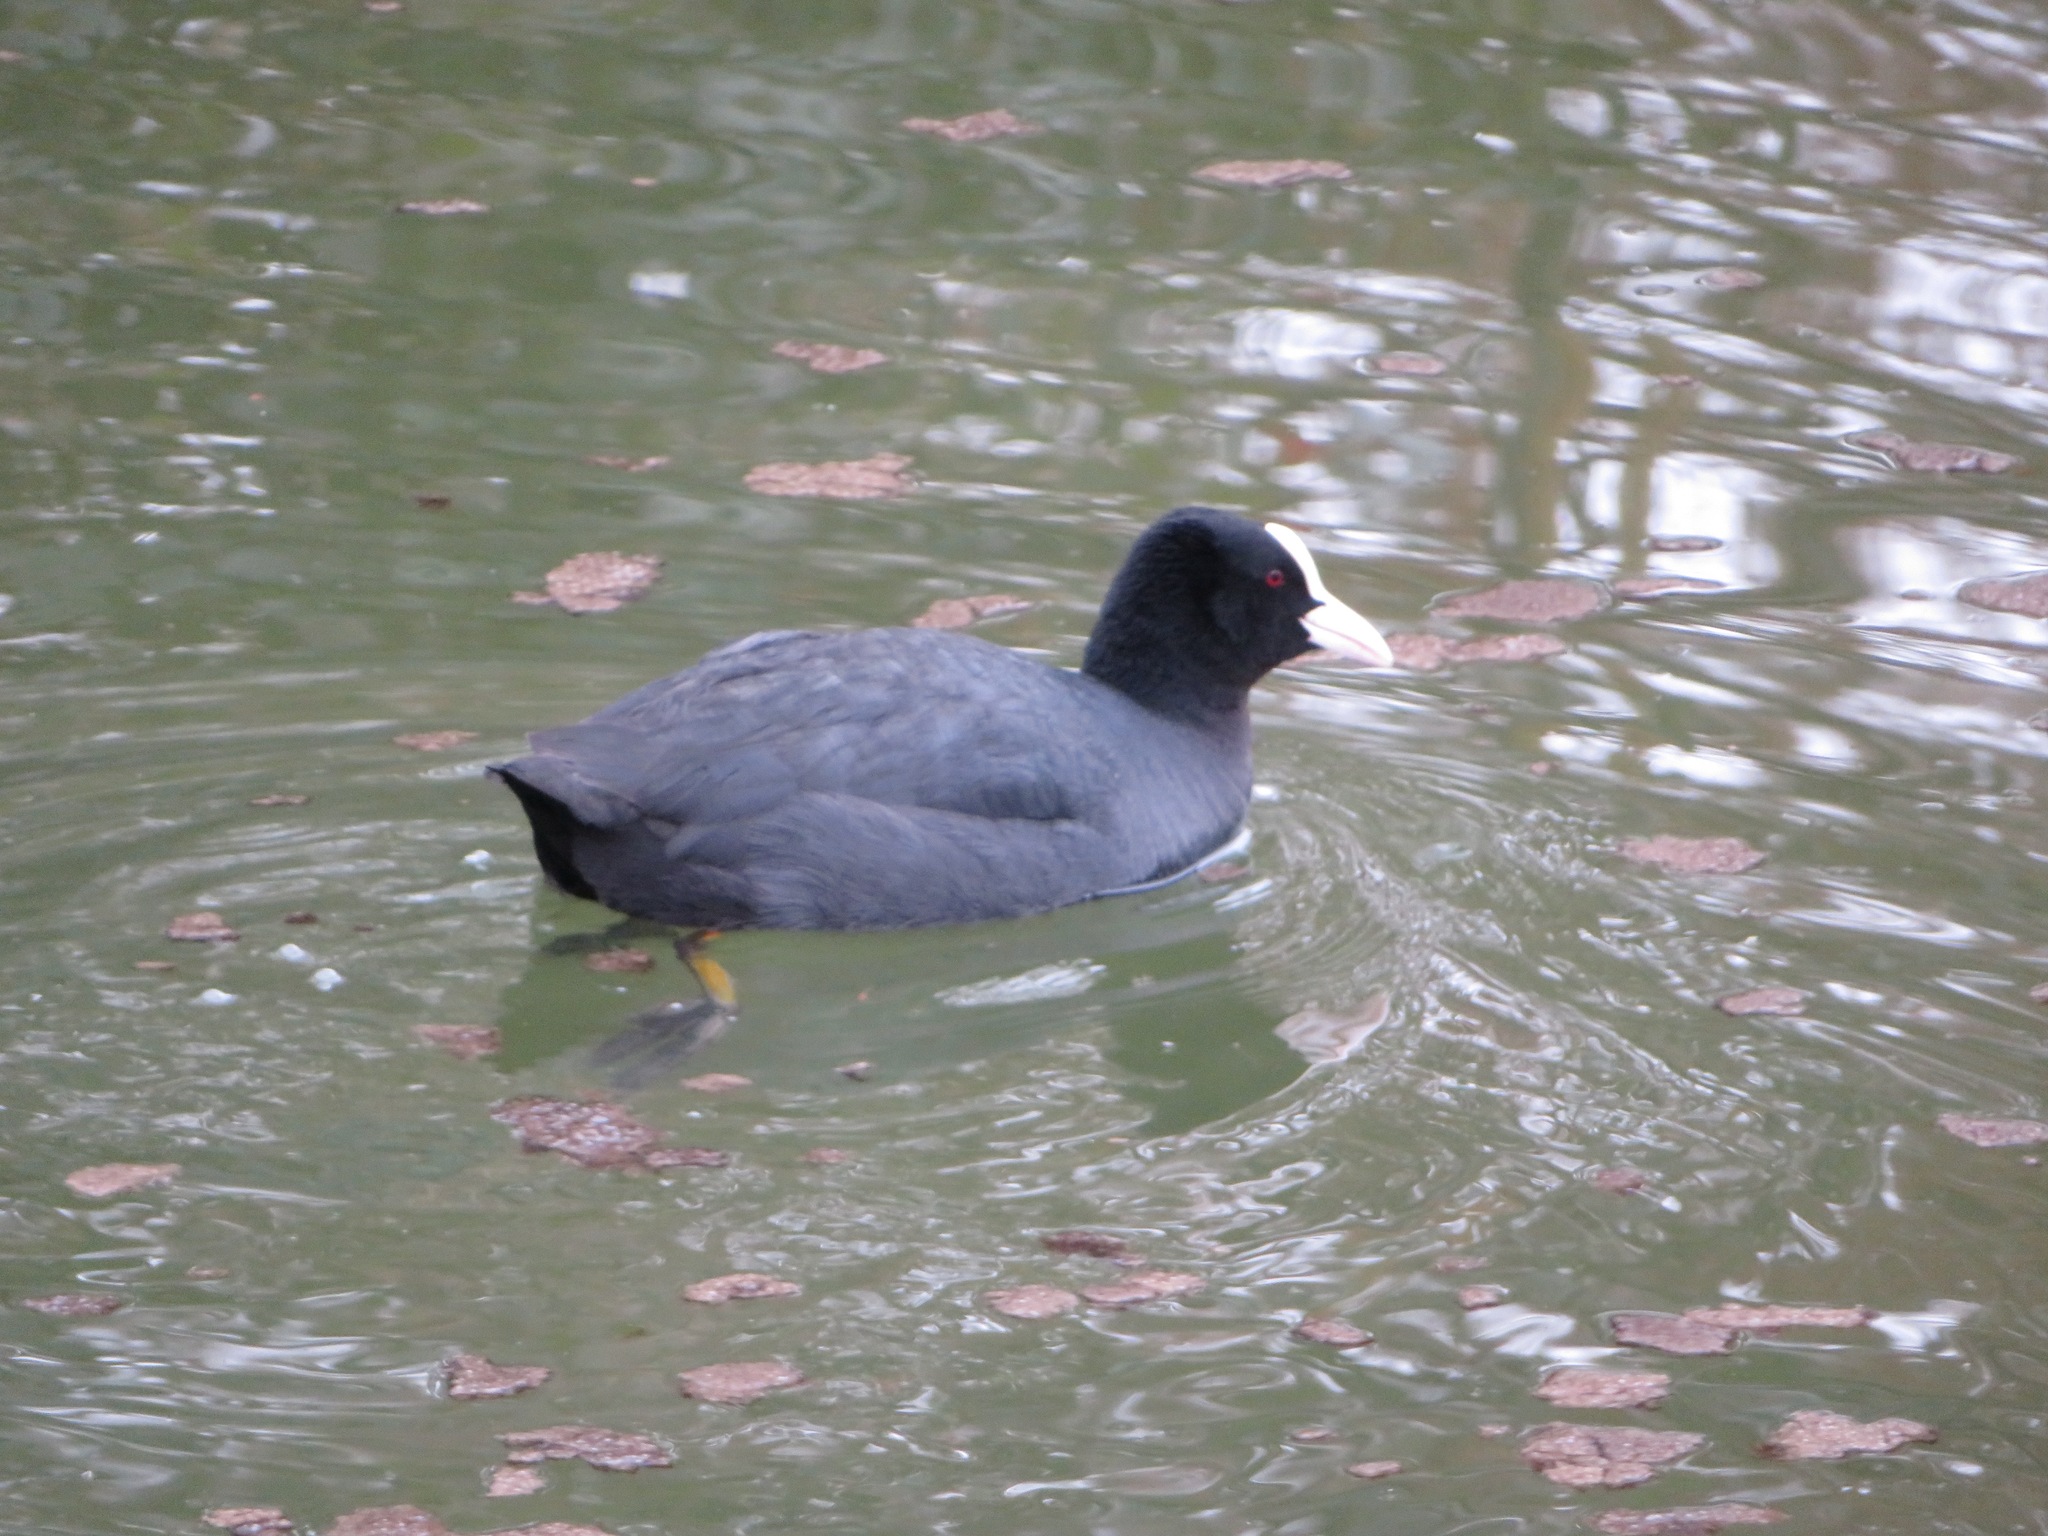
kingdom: Animalia
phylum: Chordata
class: Aves
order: Gruiformes
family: Rallidae
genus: Fulica
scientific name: Fulica atra
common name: Eurasian coot
